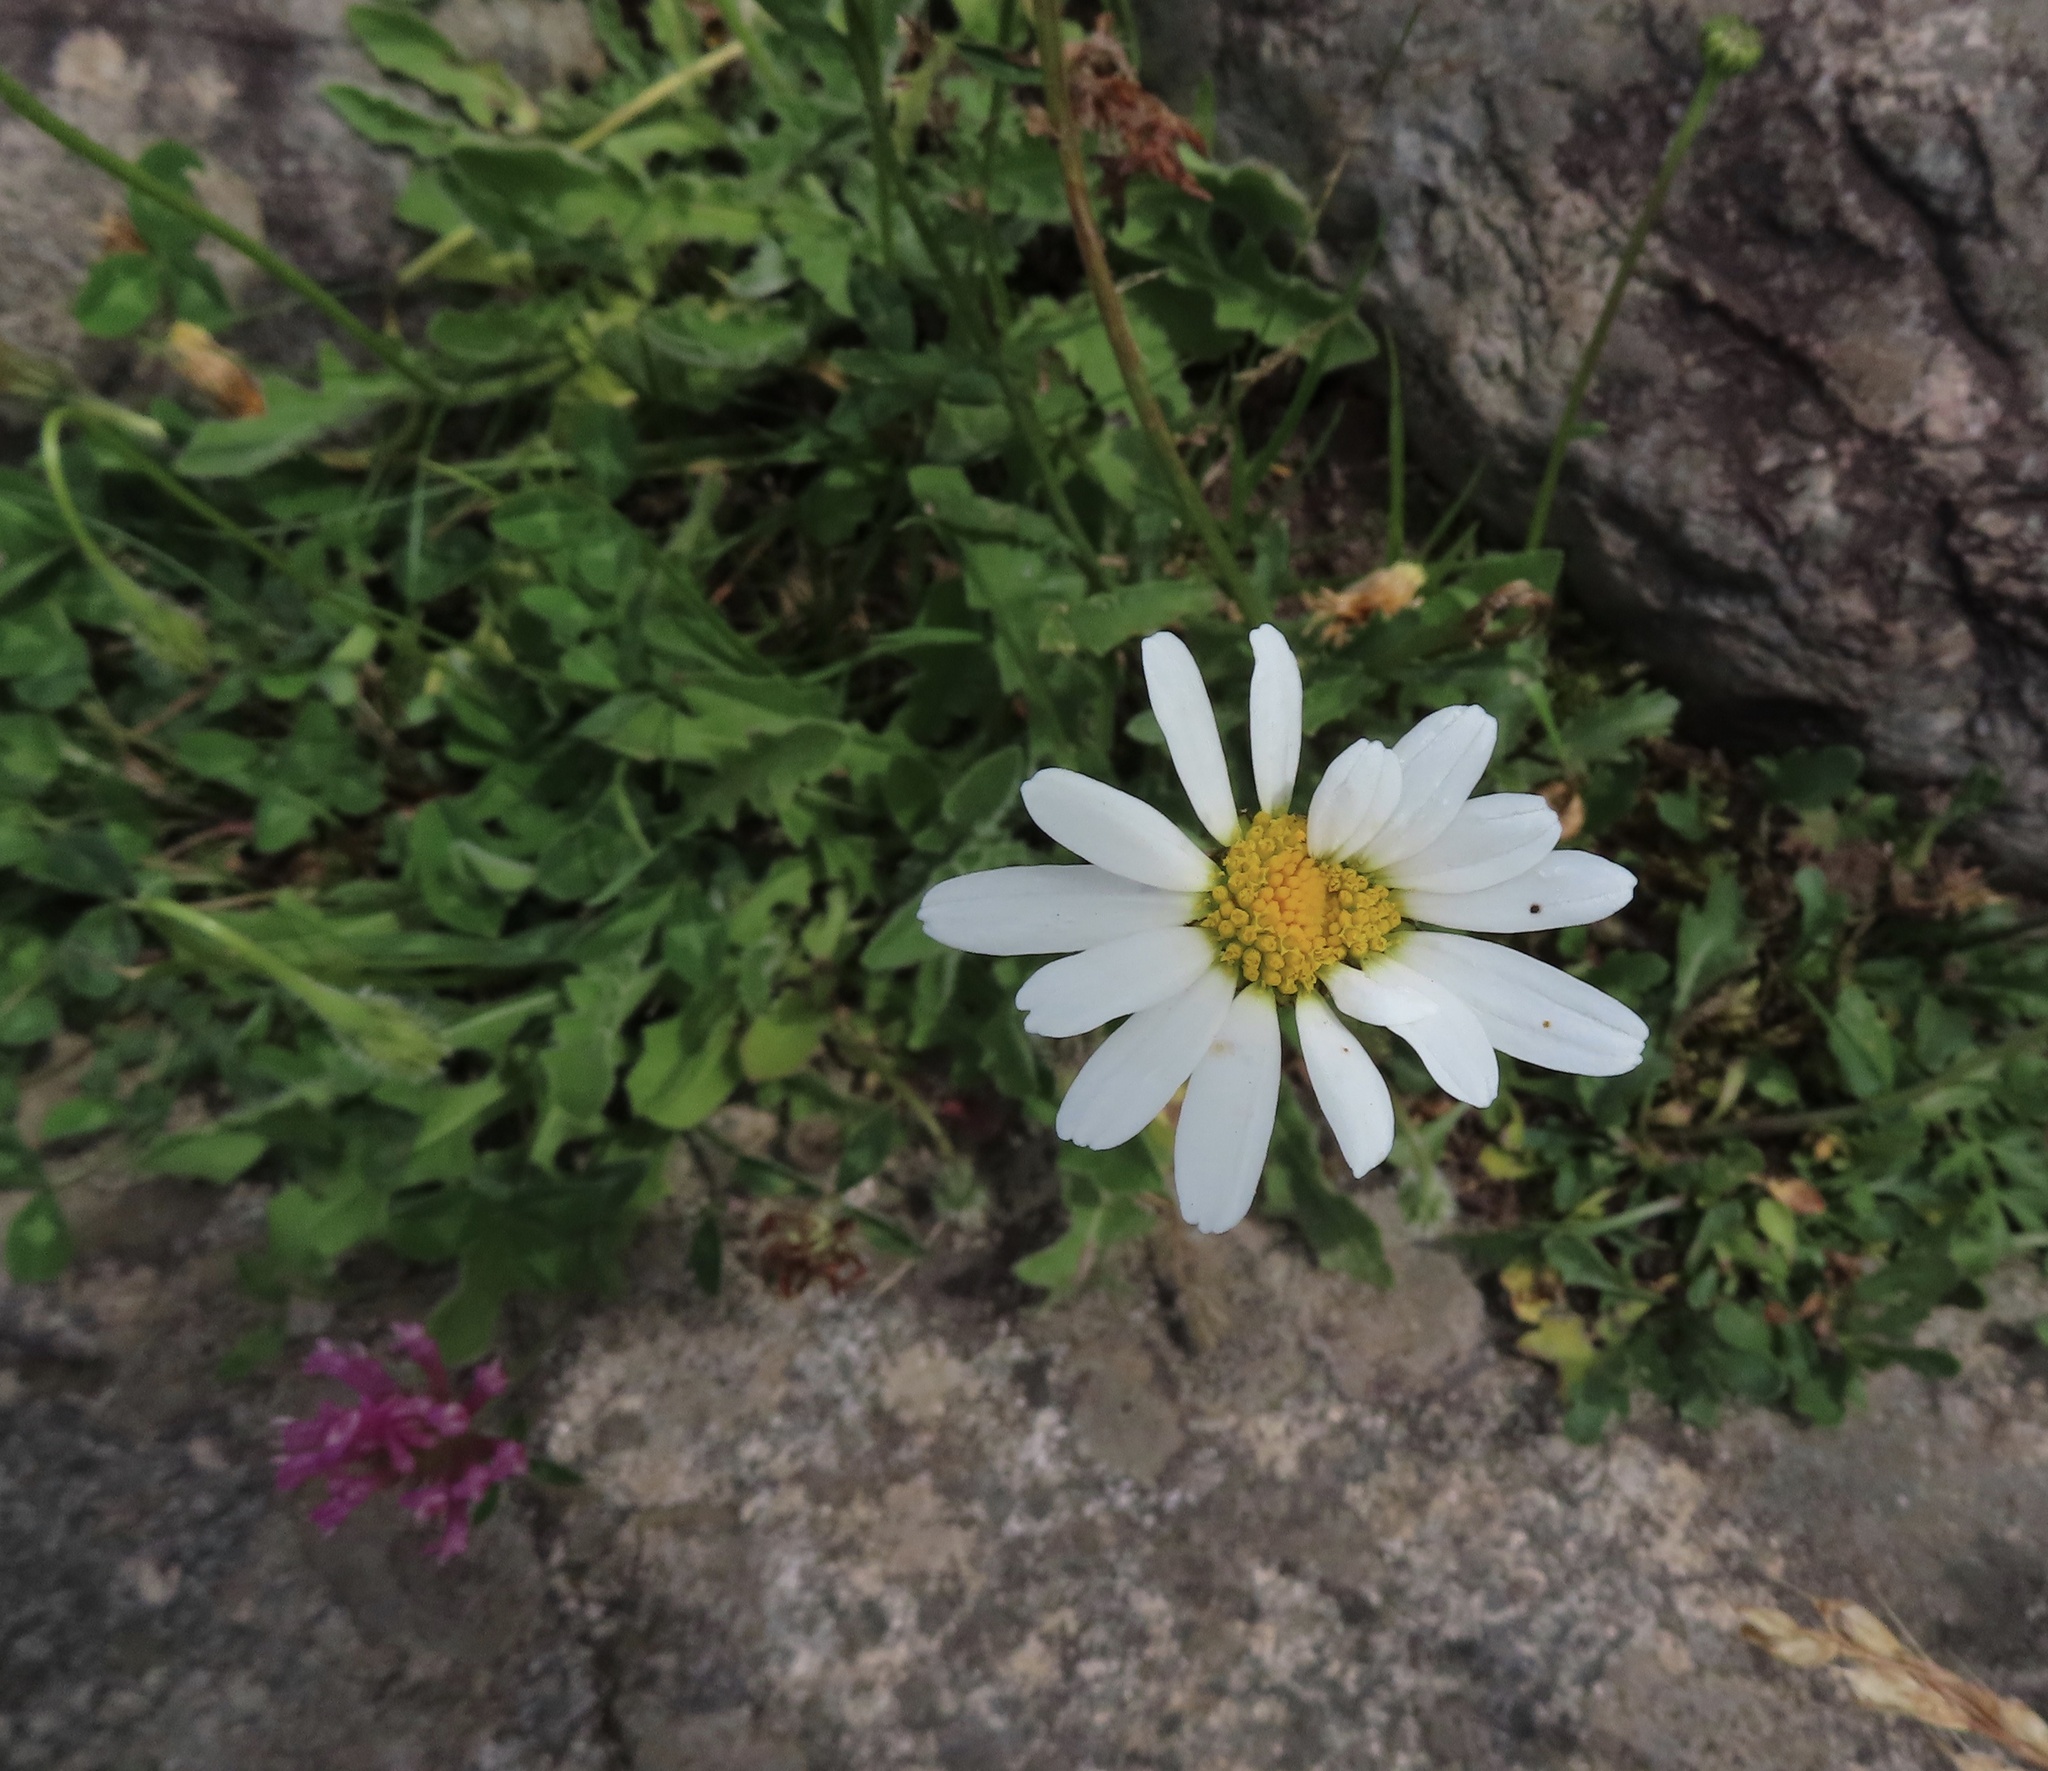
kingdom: Plantae
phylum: Tracheophyta
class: Magnoliopsida
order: Asterales
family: Asteraceae
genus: Leucanthemum
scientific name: Leucanthemum vulgare
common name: Oxeye daisy
